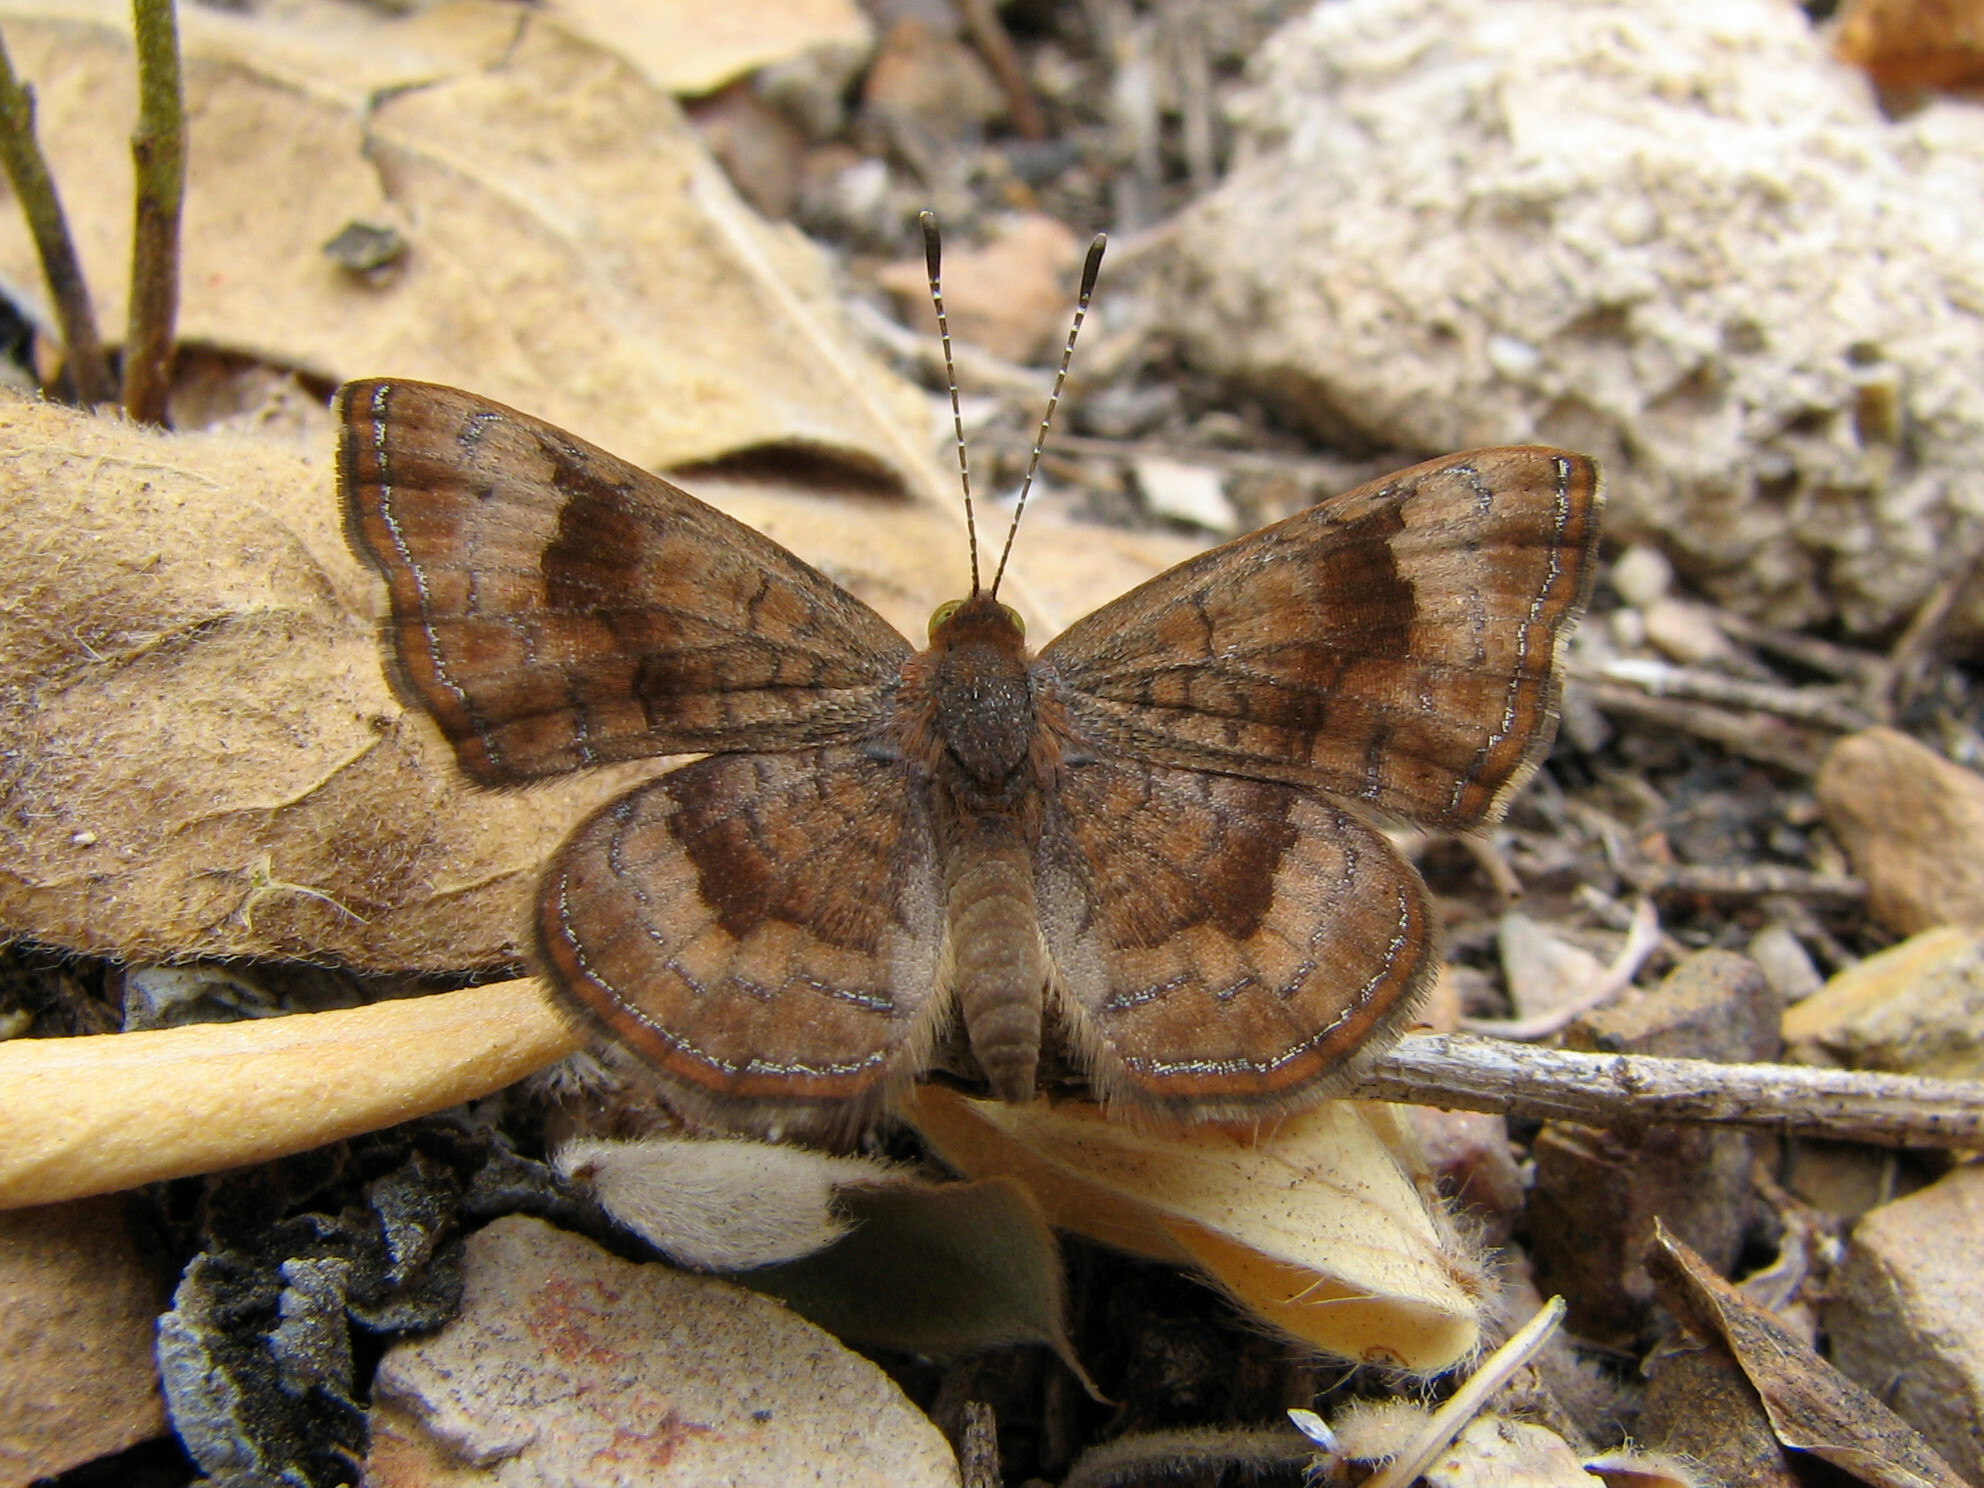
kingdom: Animalia
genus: Calephelis
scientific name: Calephelis nemesis
